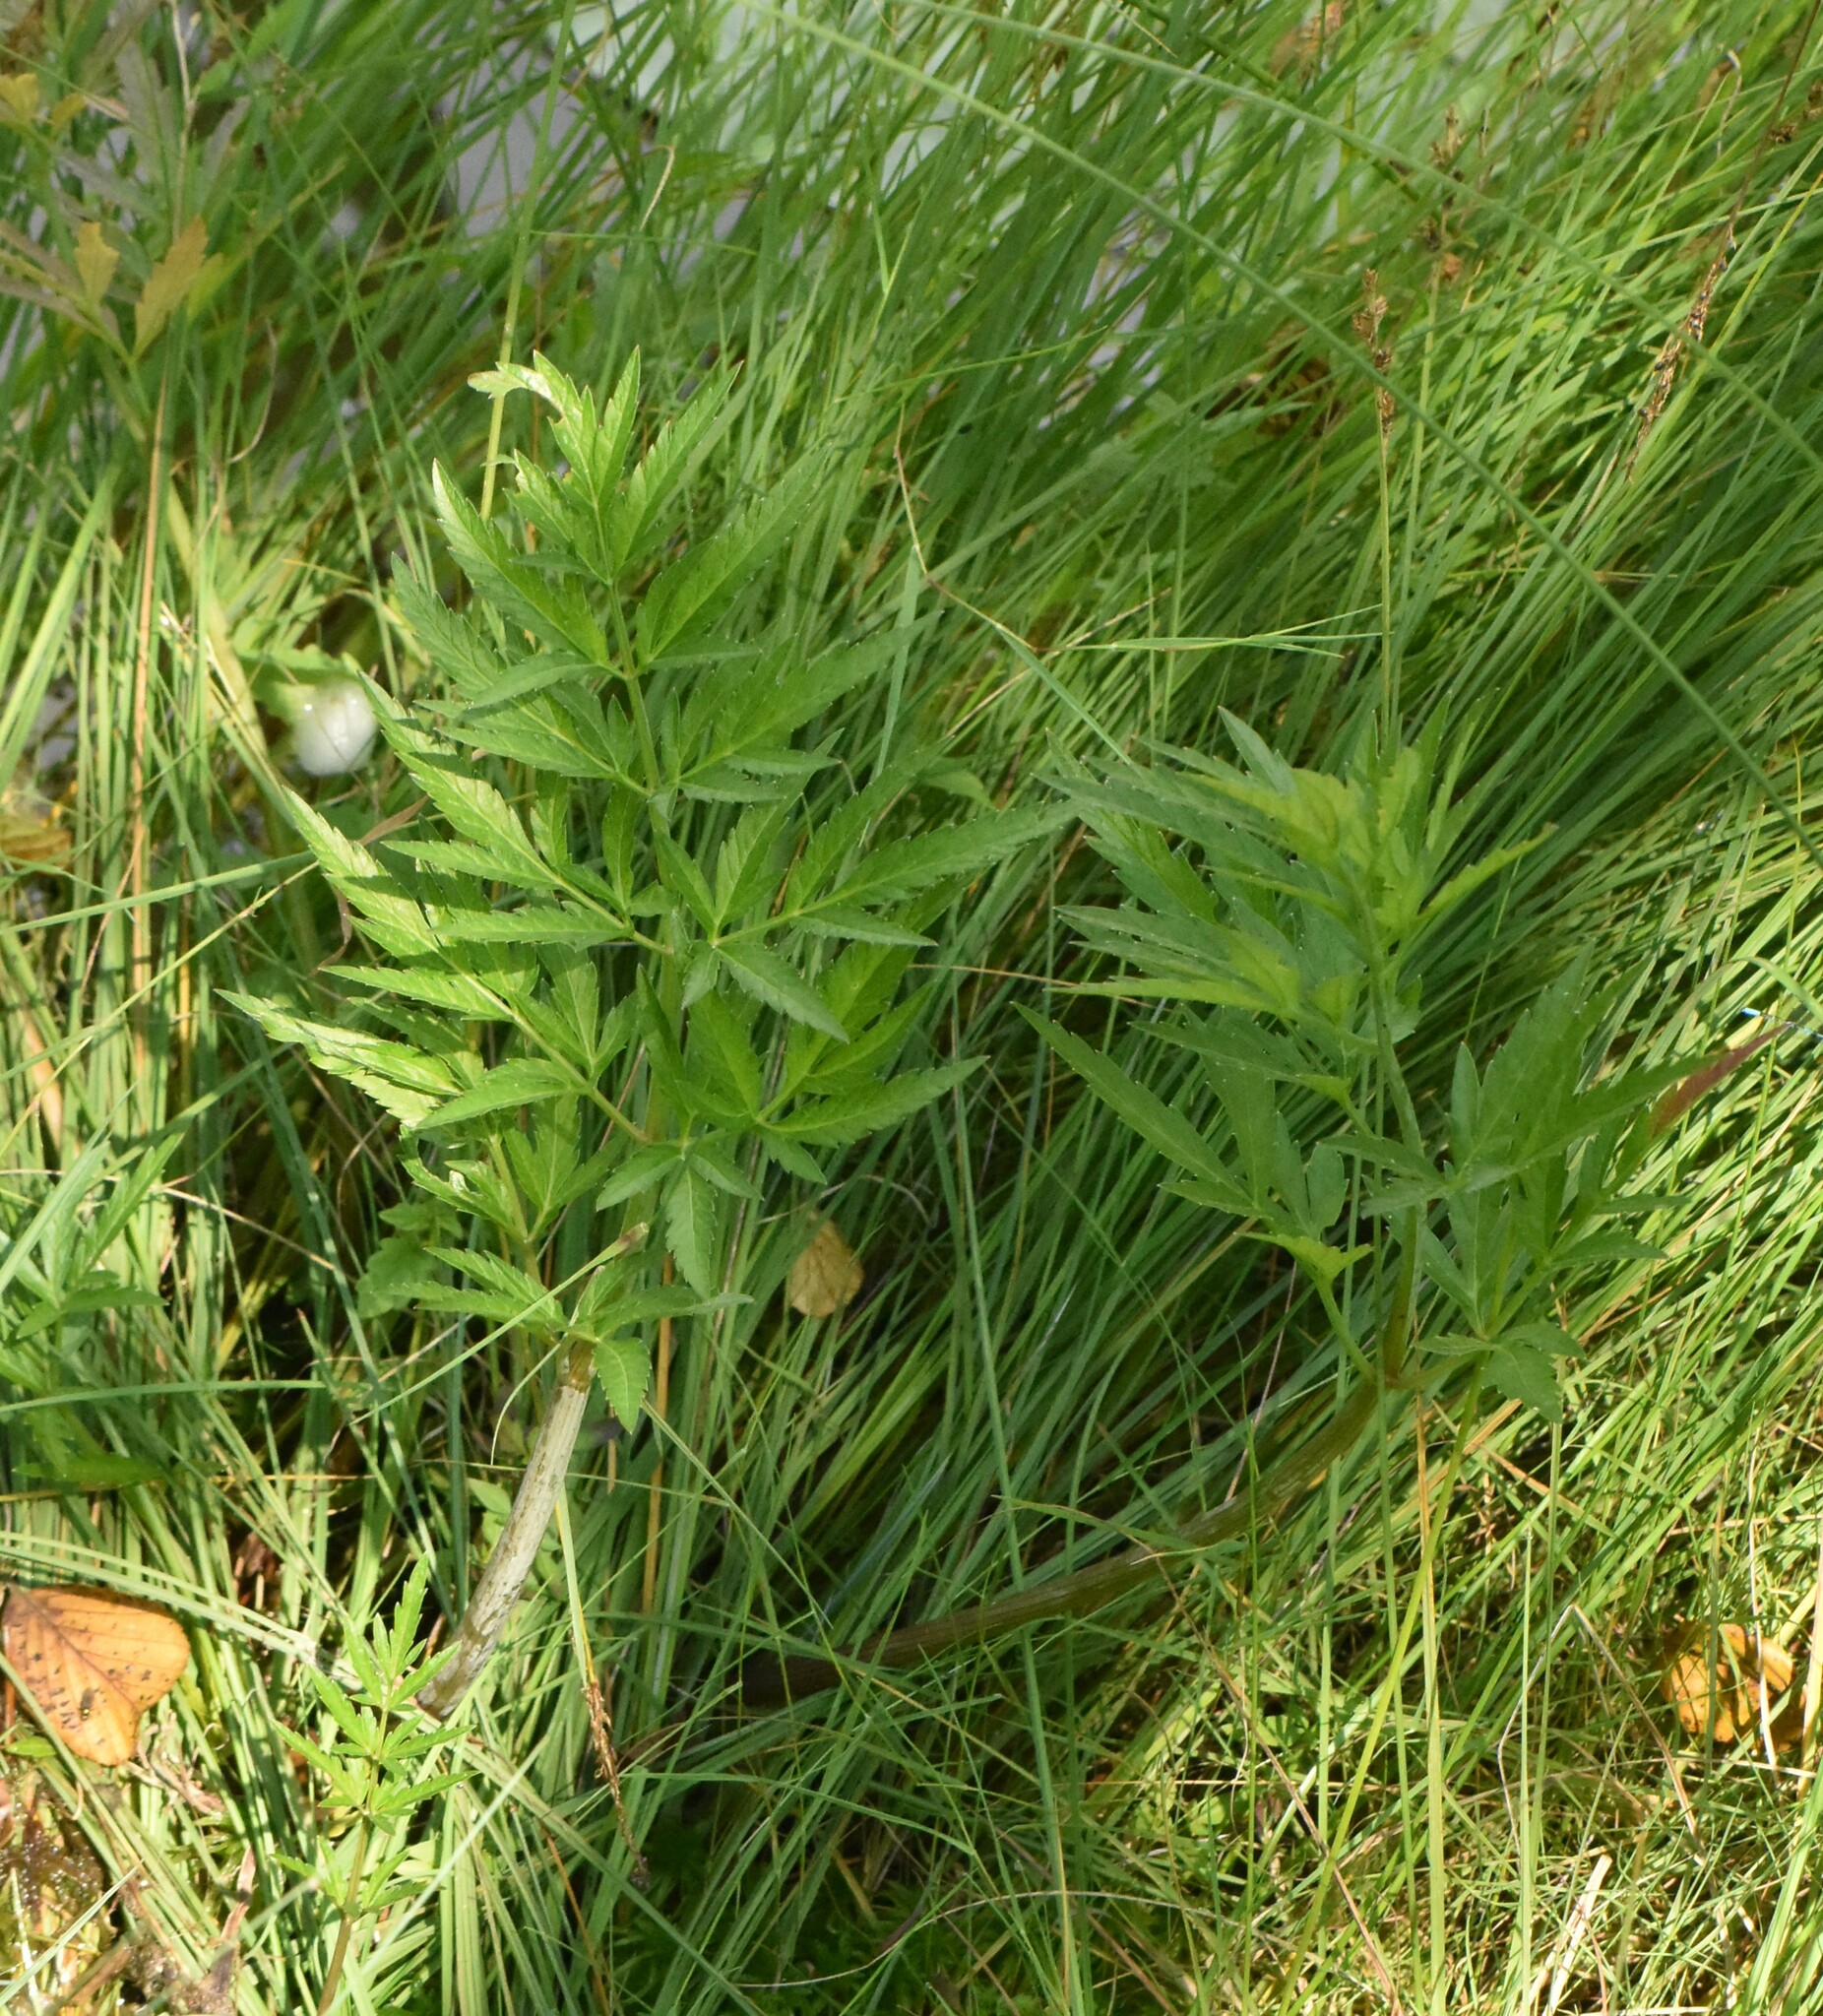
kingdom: Plantae
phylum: Tracheophyta
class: Magnoliopsida
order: Apiales
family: Apiaceae
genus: Cicuta
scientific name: Cicuta virosa
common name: Cowbane
